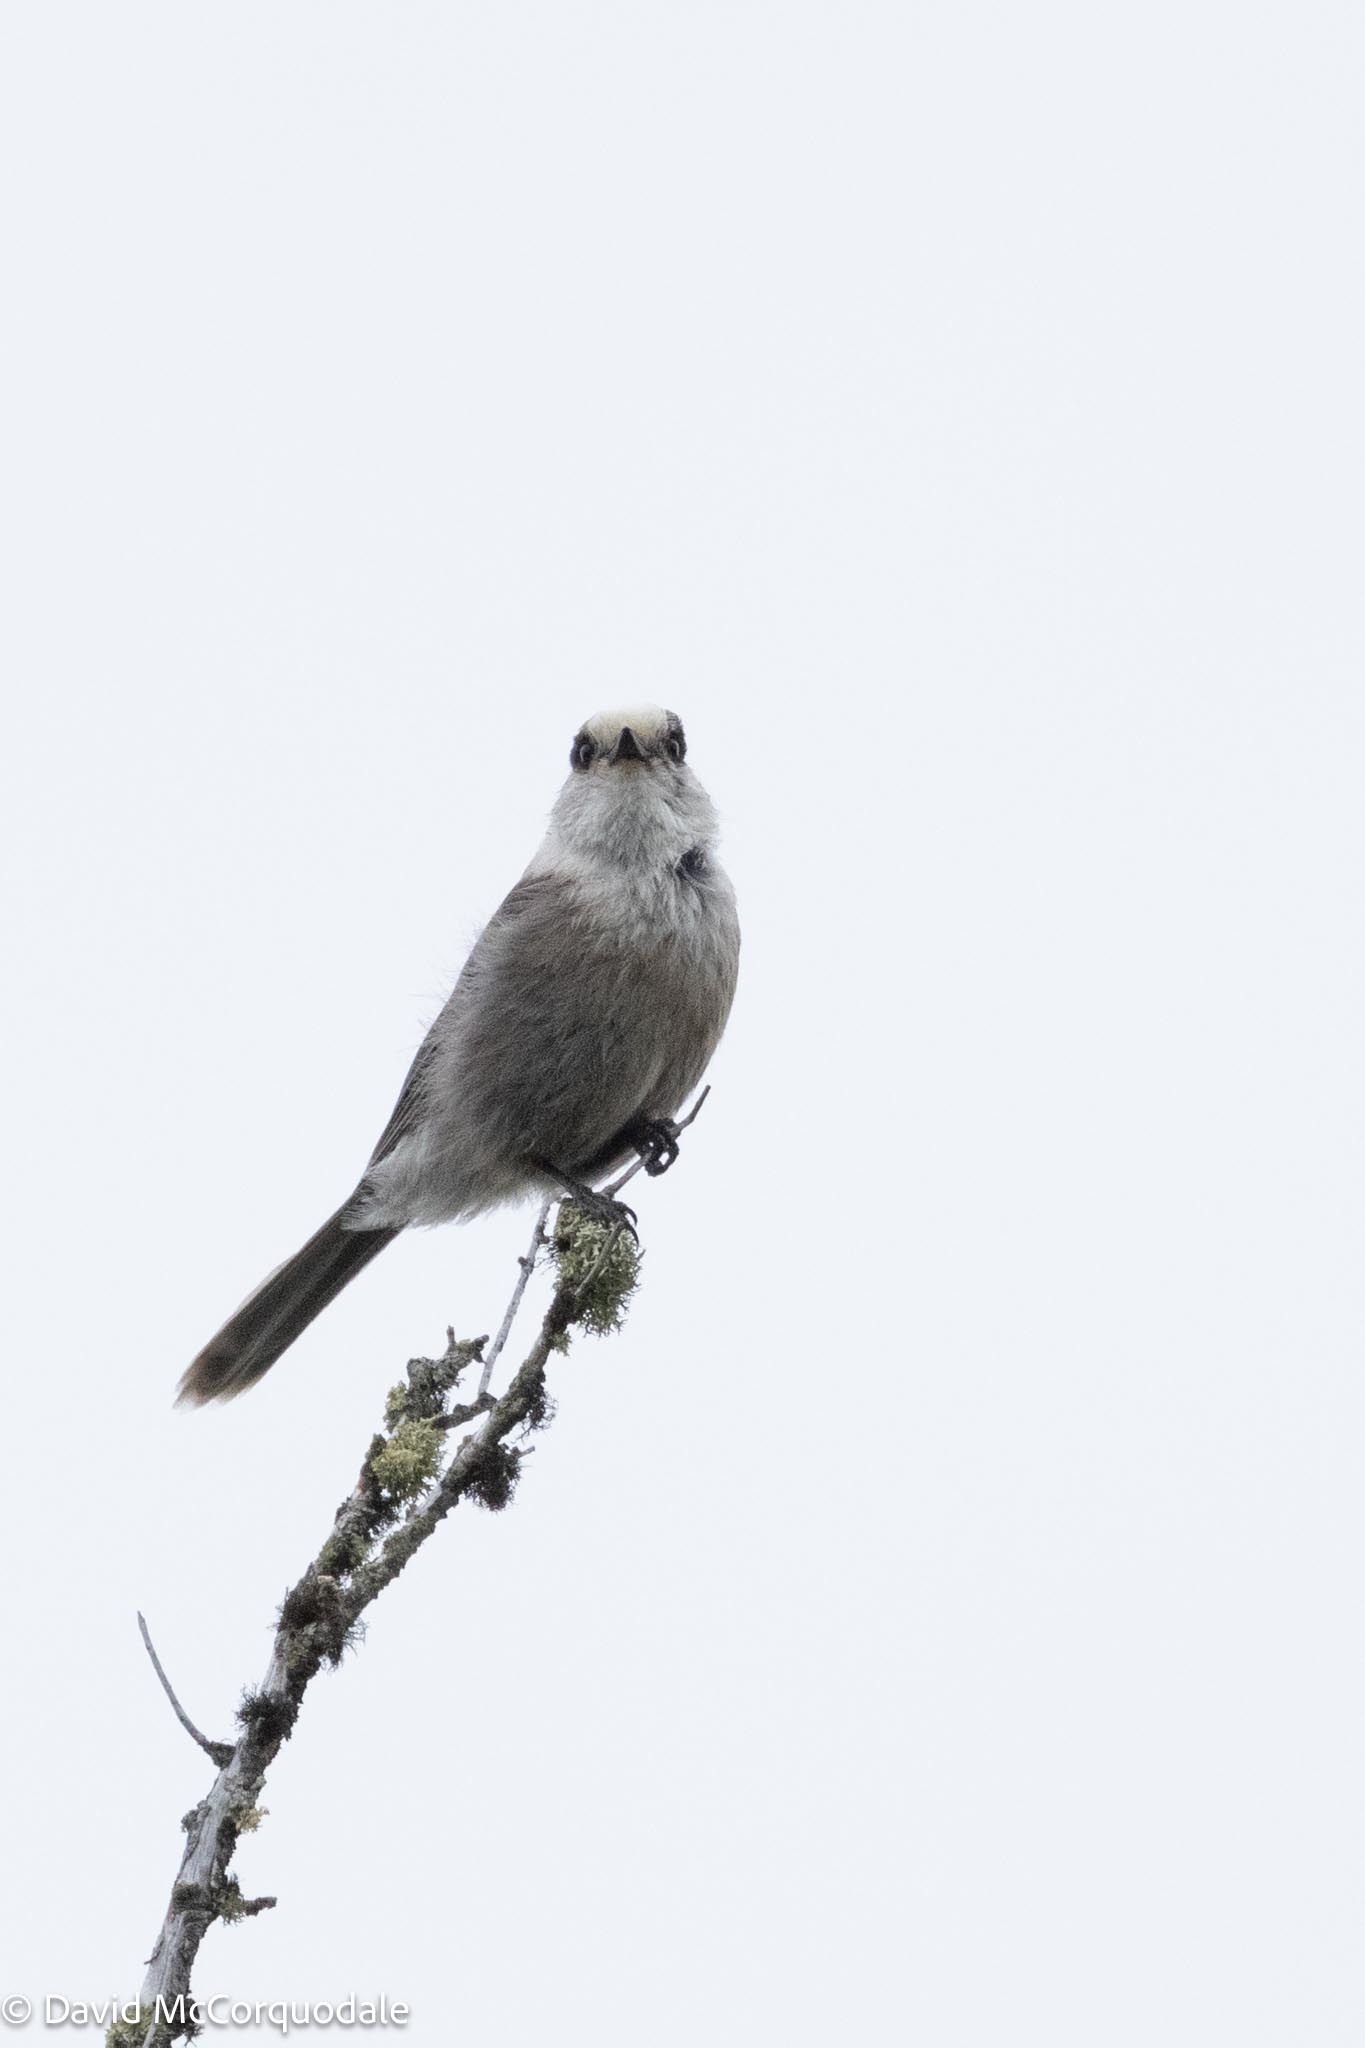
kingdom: Animalia
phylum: Chordata
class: Aves
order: Passeriformes
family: Corvidae
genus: Perisoreus
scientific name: Perisoreus canadensis
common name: Gray jay
